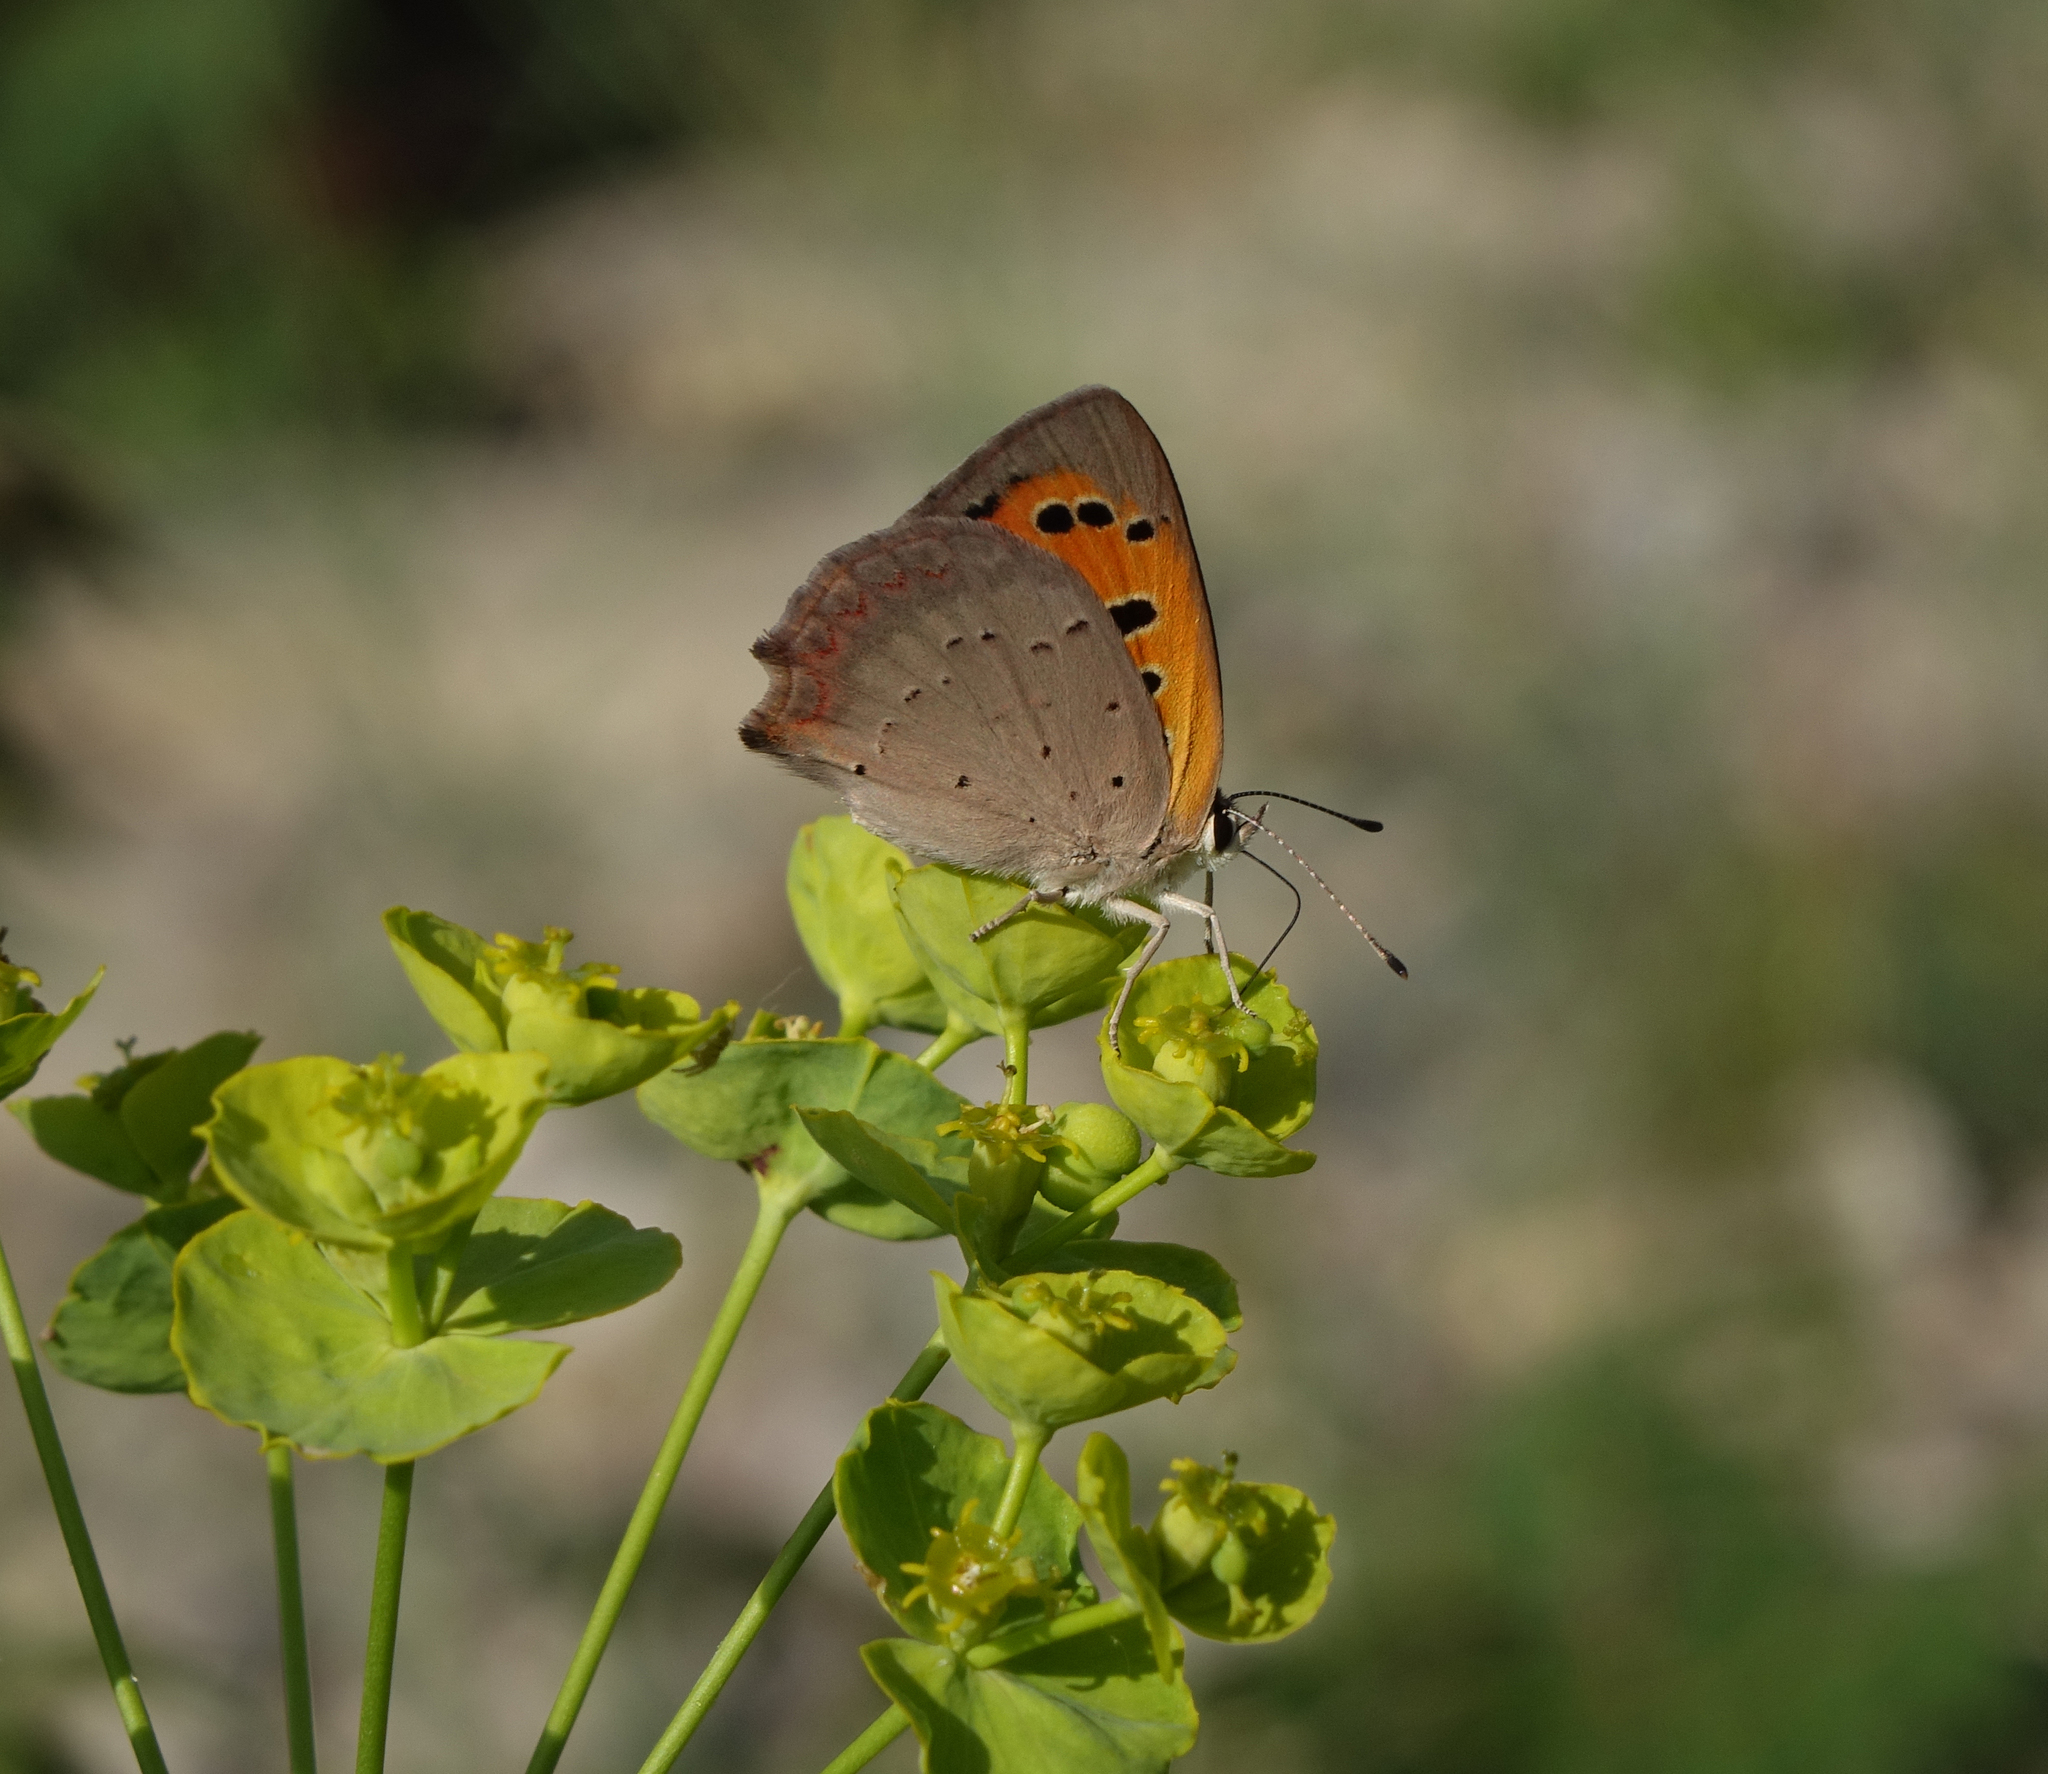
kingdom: Animalia
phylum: Arthropoda
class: Insecta
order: Lepidoptera
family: Lycaenidae
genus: Lycaena
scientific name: Lycaena phlaeas
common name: Small copper
